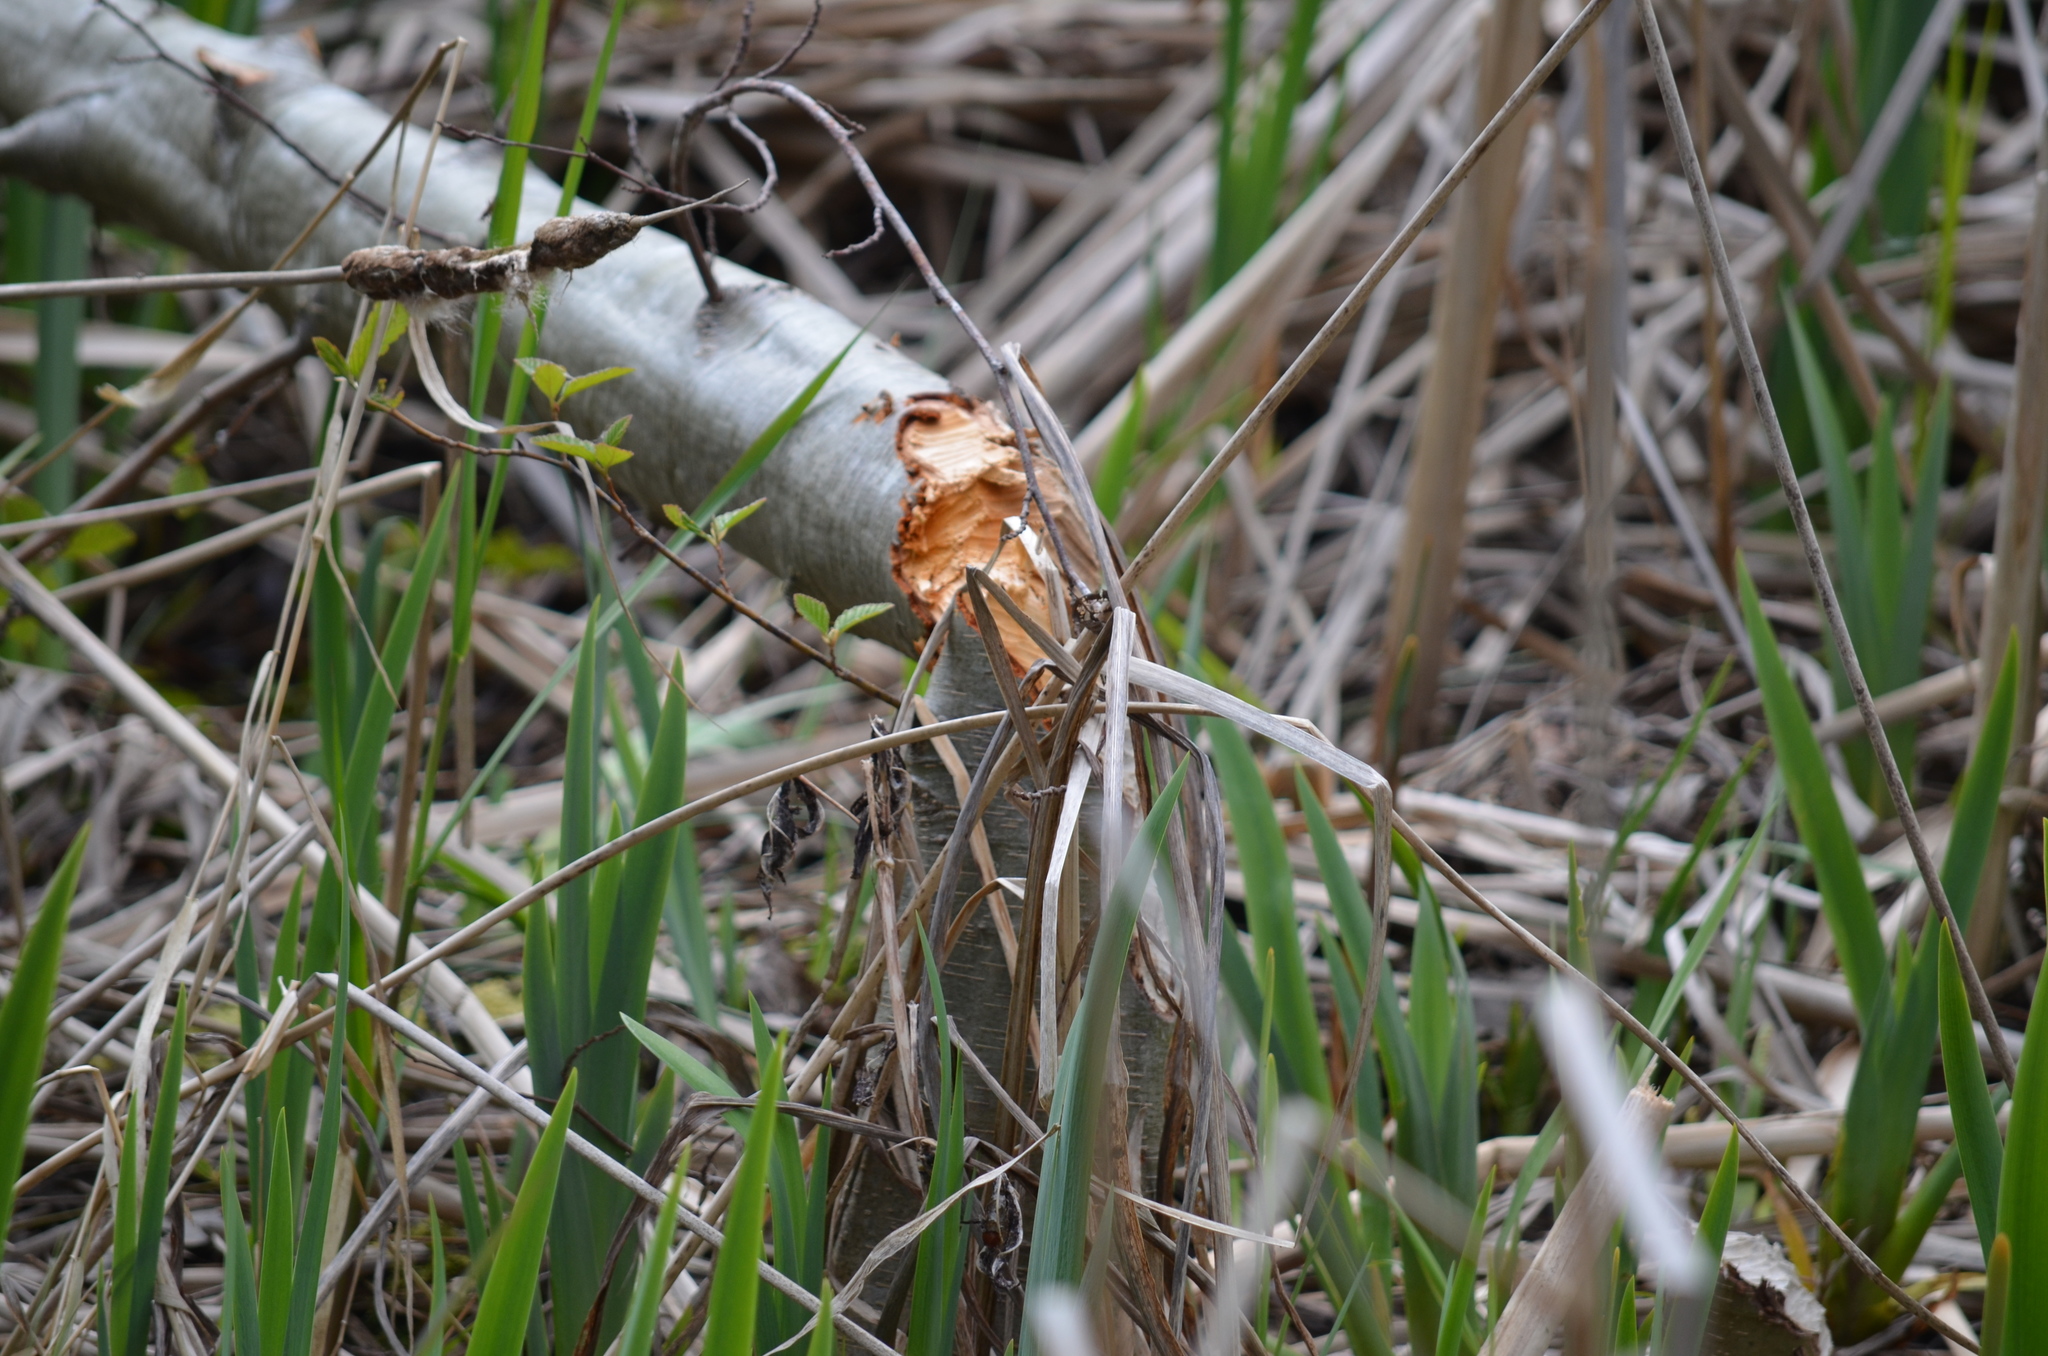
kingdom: Animalia
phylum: Chordata
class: Mammalia
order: Rodentia
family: Castoridae
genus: Castor
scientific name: Castor canadensis
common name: American beaver
